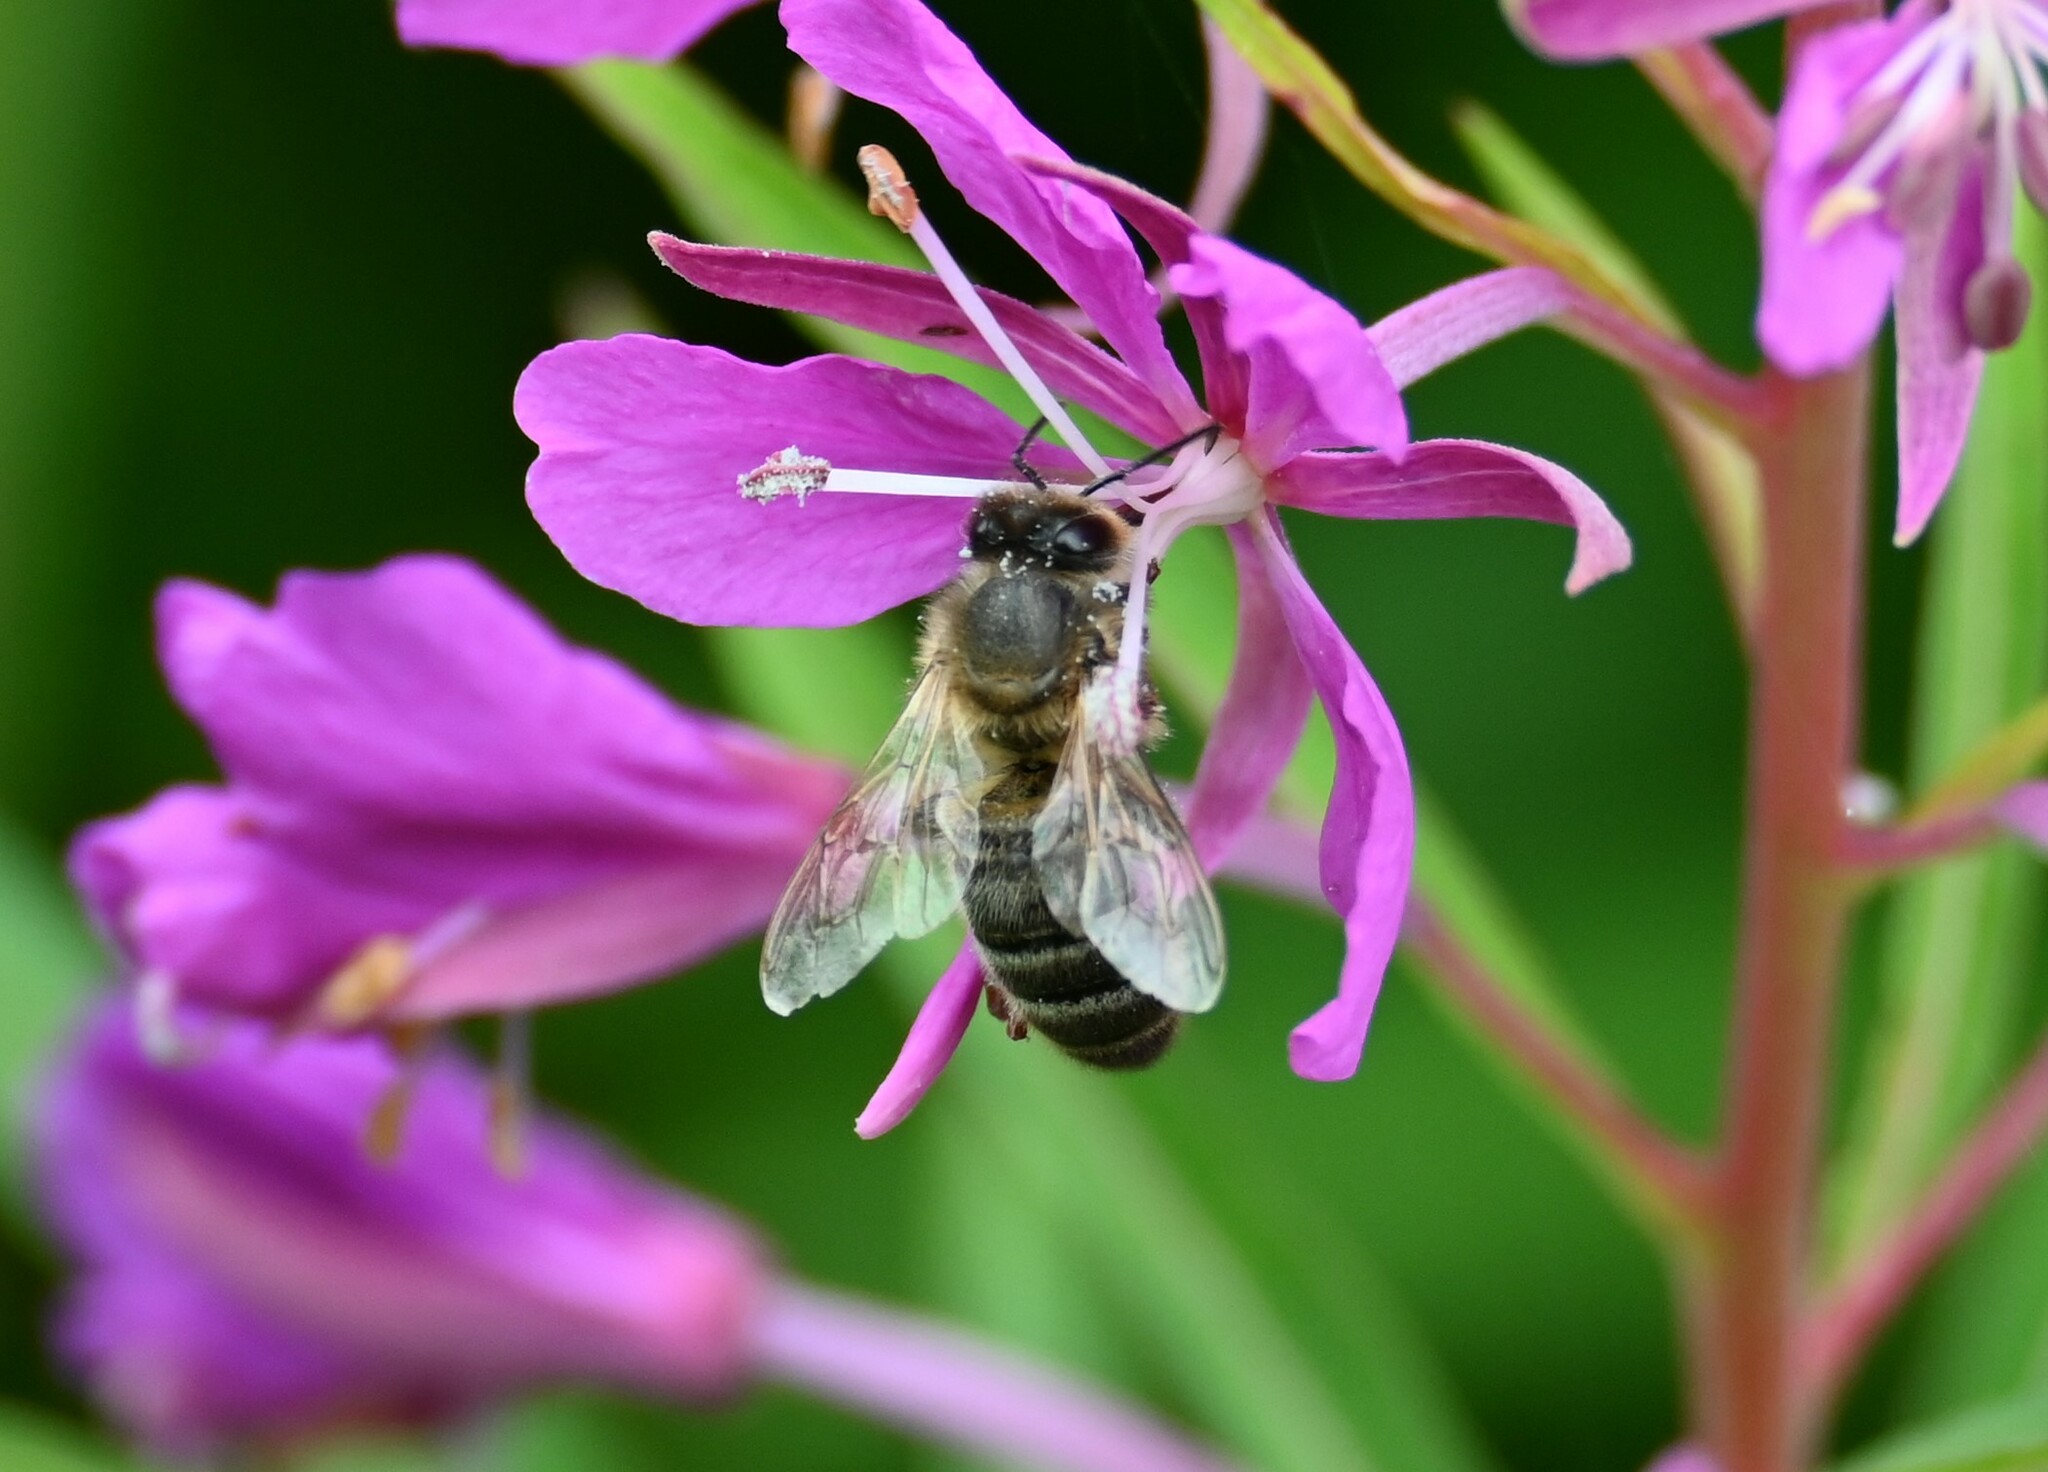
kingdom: Animalia
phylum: Arthropoda
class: Insecta
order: Hymenoptera
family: Apidae
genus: Apis
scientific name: Apis mellifera
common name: Honey bee
